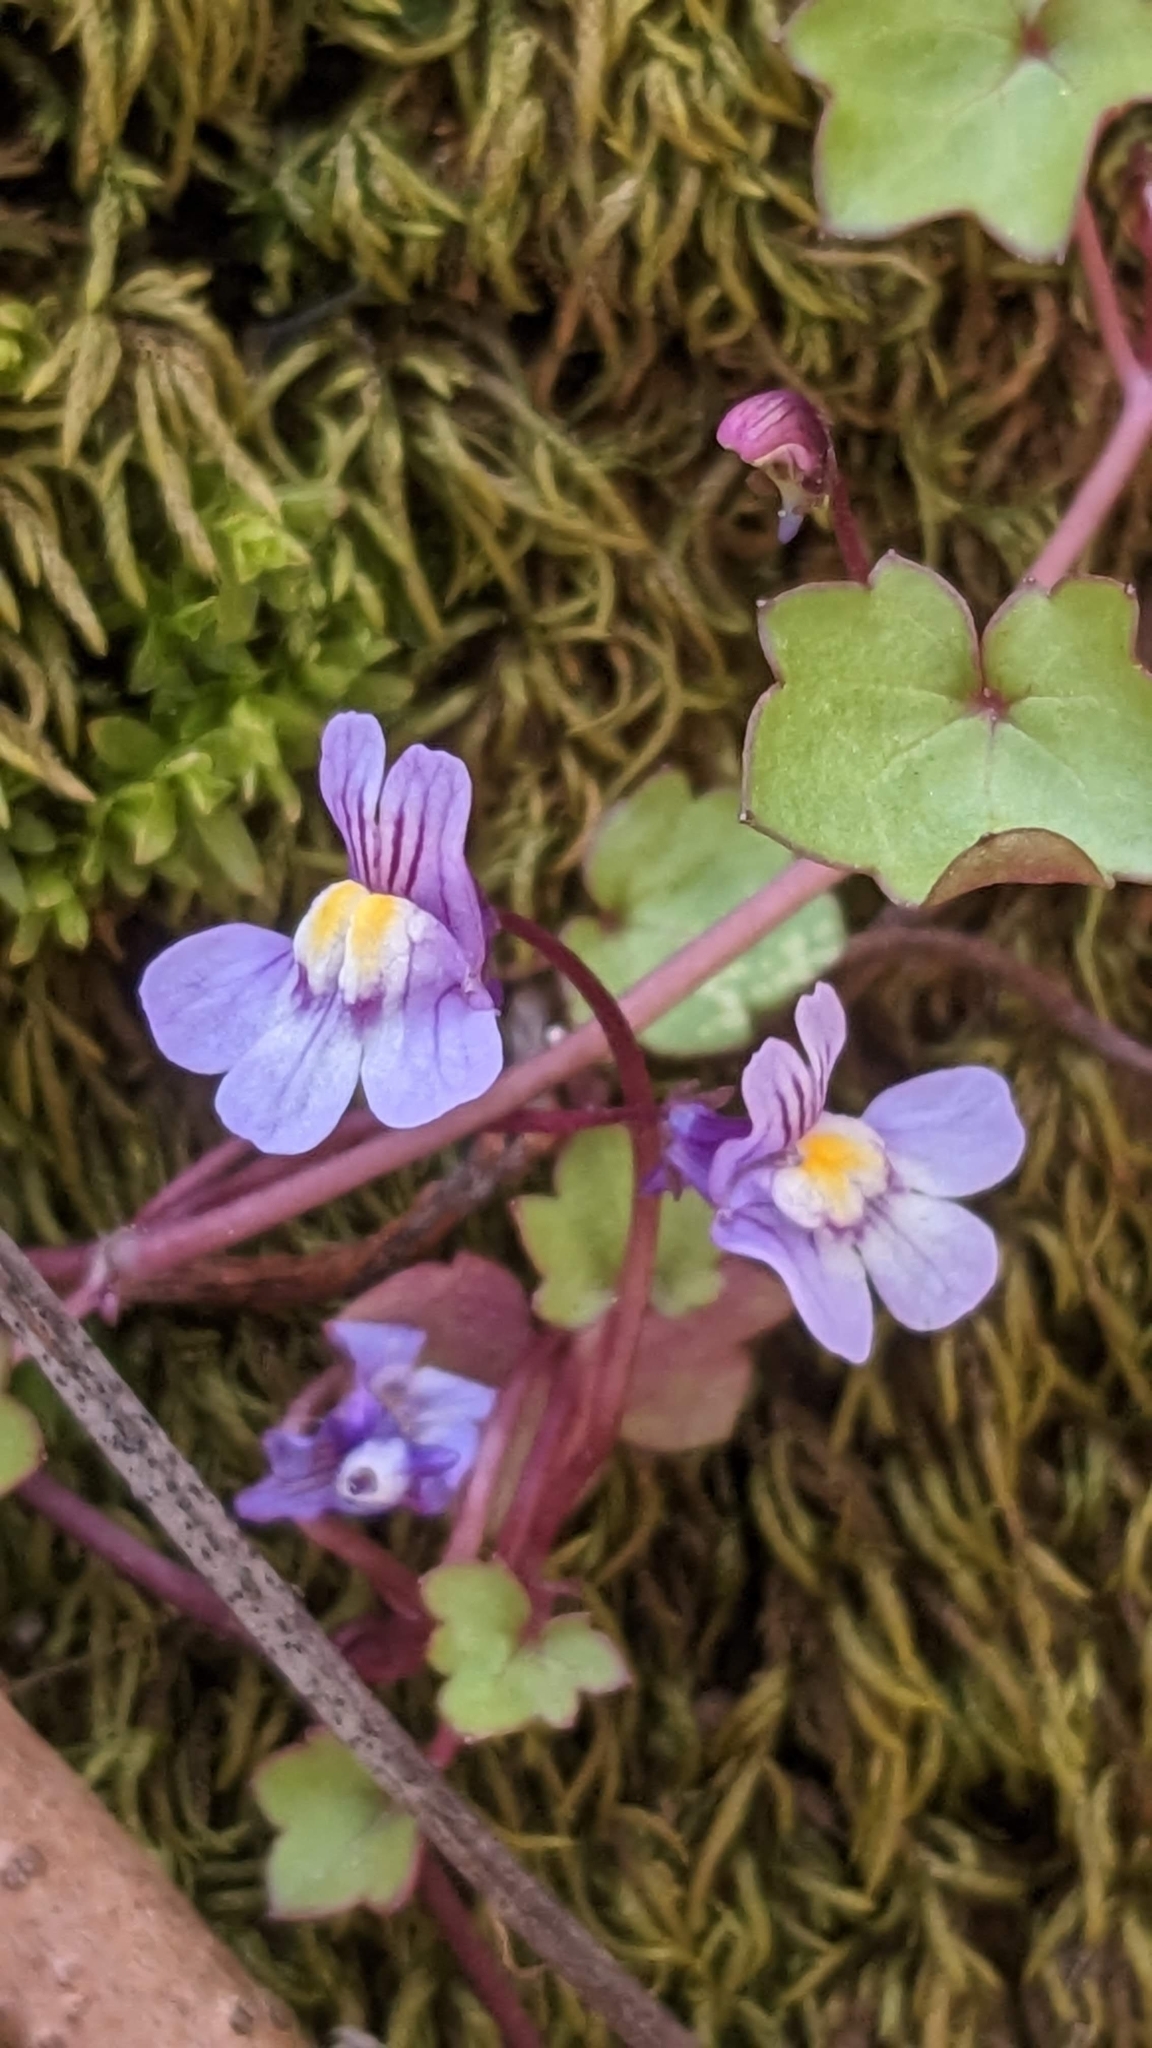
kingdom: Plantae
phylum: Tracheophyta
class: Magnoliopsida
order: Lamiales
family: Plantaginaceae
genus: Cymbalaria
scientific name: Cymbalaria muralis
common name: Ivy-leaved toadflax
